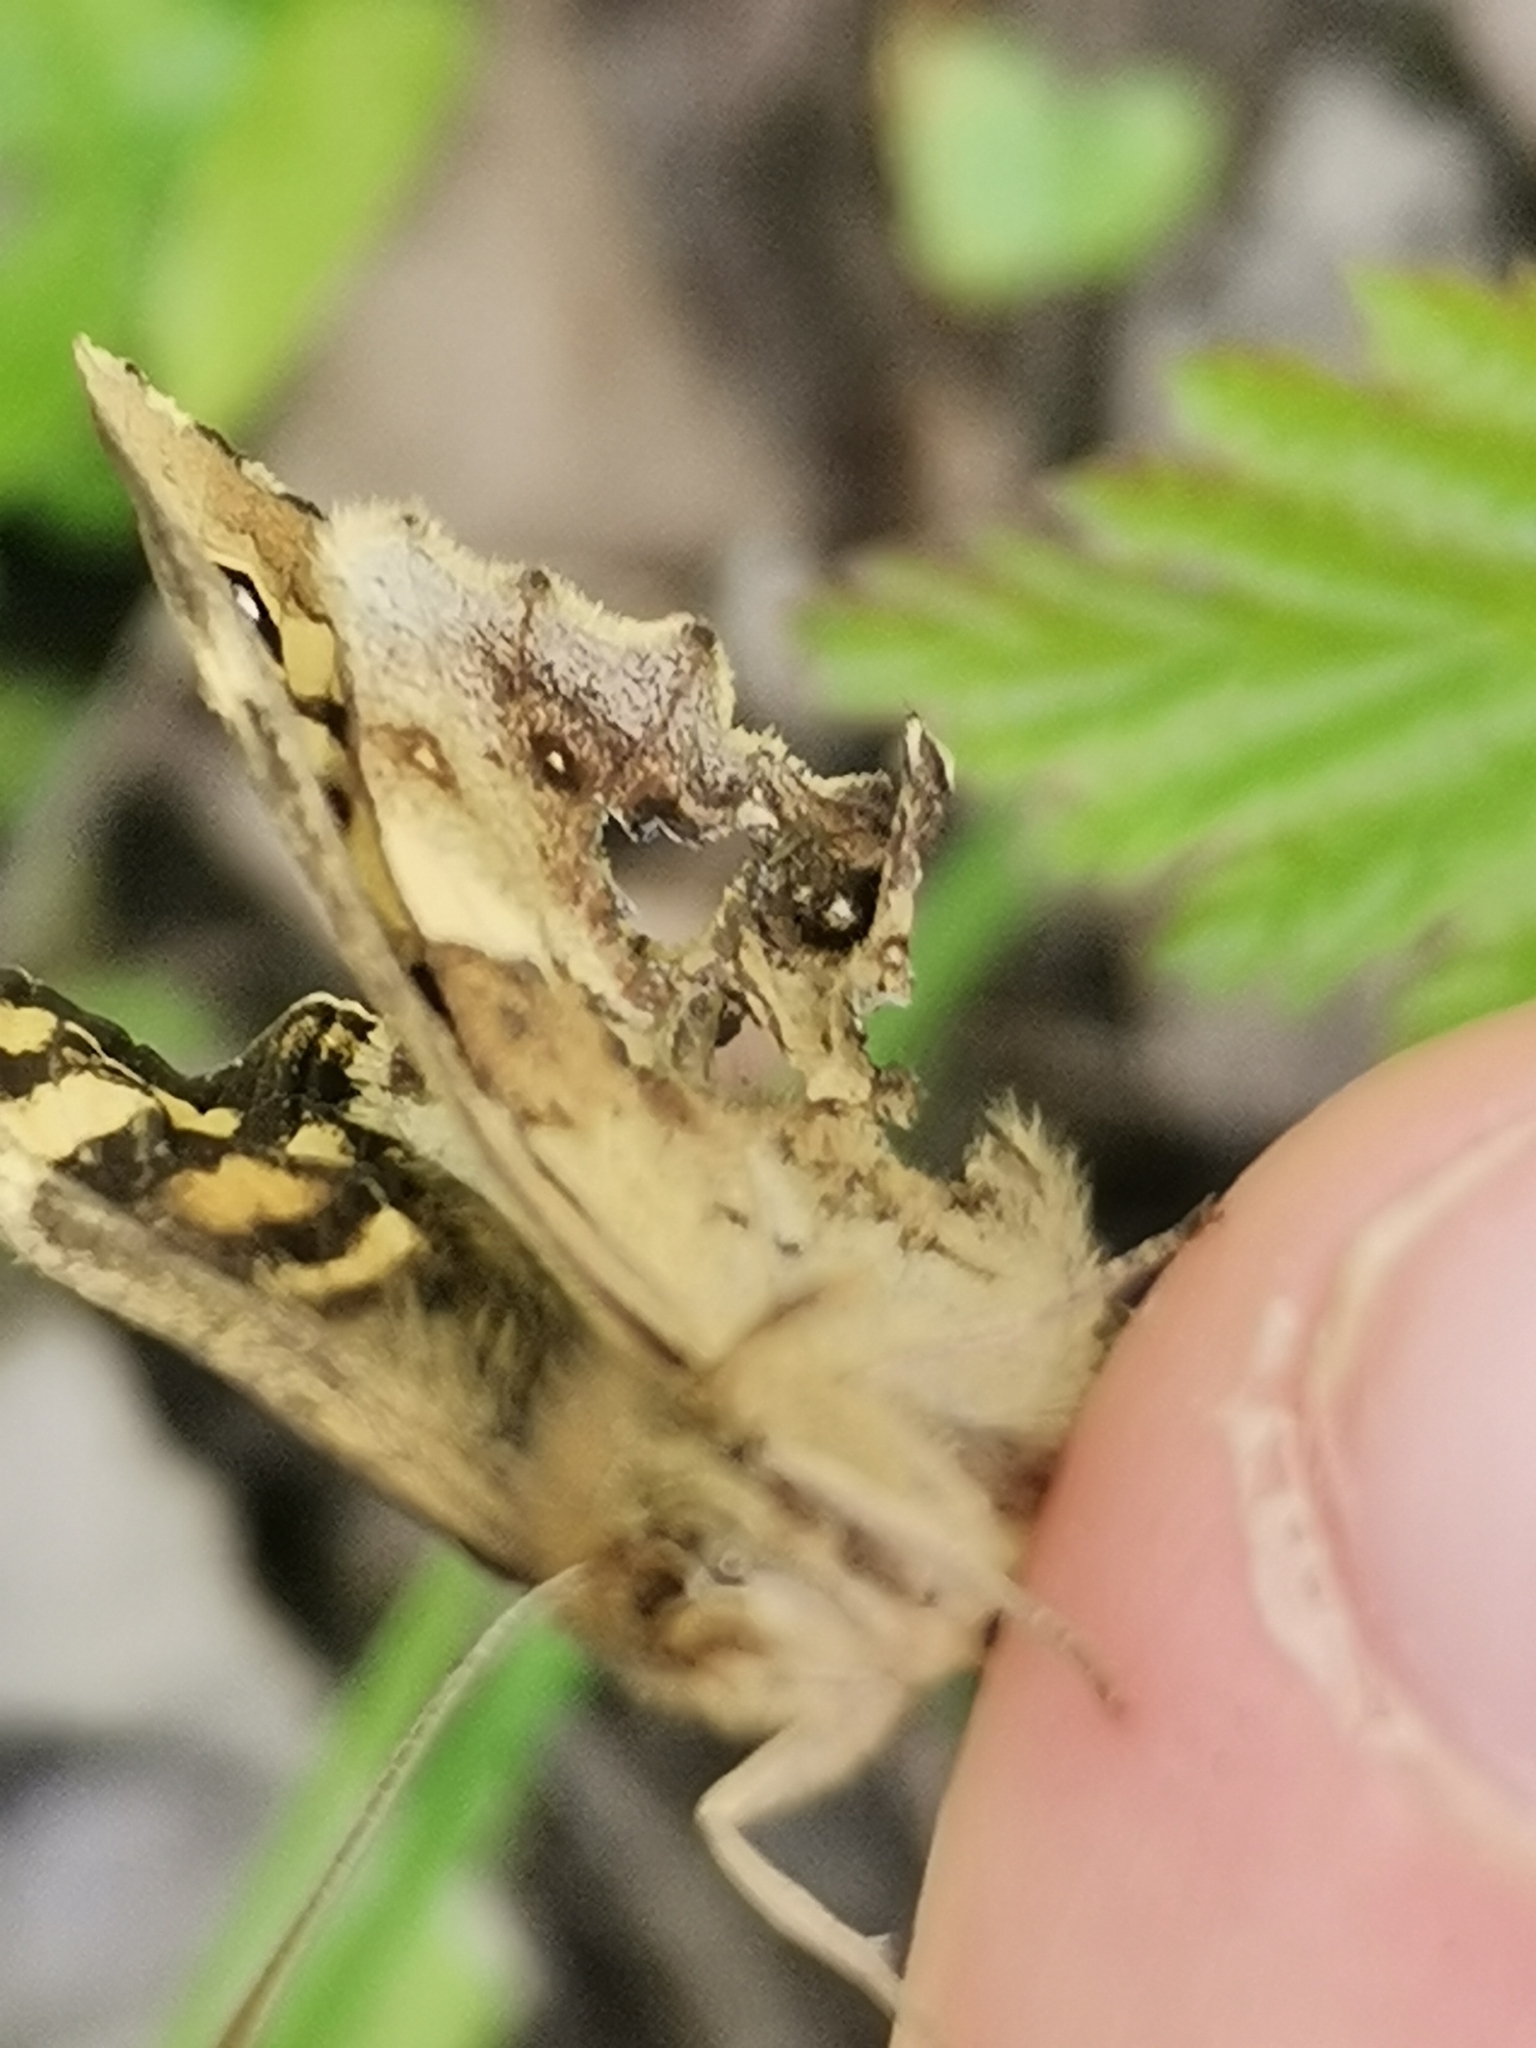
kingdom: Animalia
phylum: Arthropoda
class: Insecta
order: Lepidoptera
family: Nymphalidae
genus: Pararge
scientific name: Pararge aegeria
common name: Speckled wood
